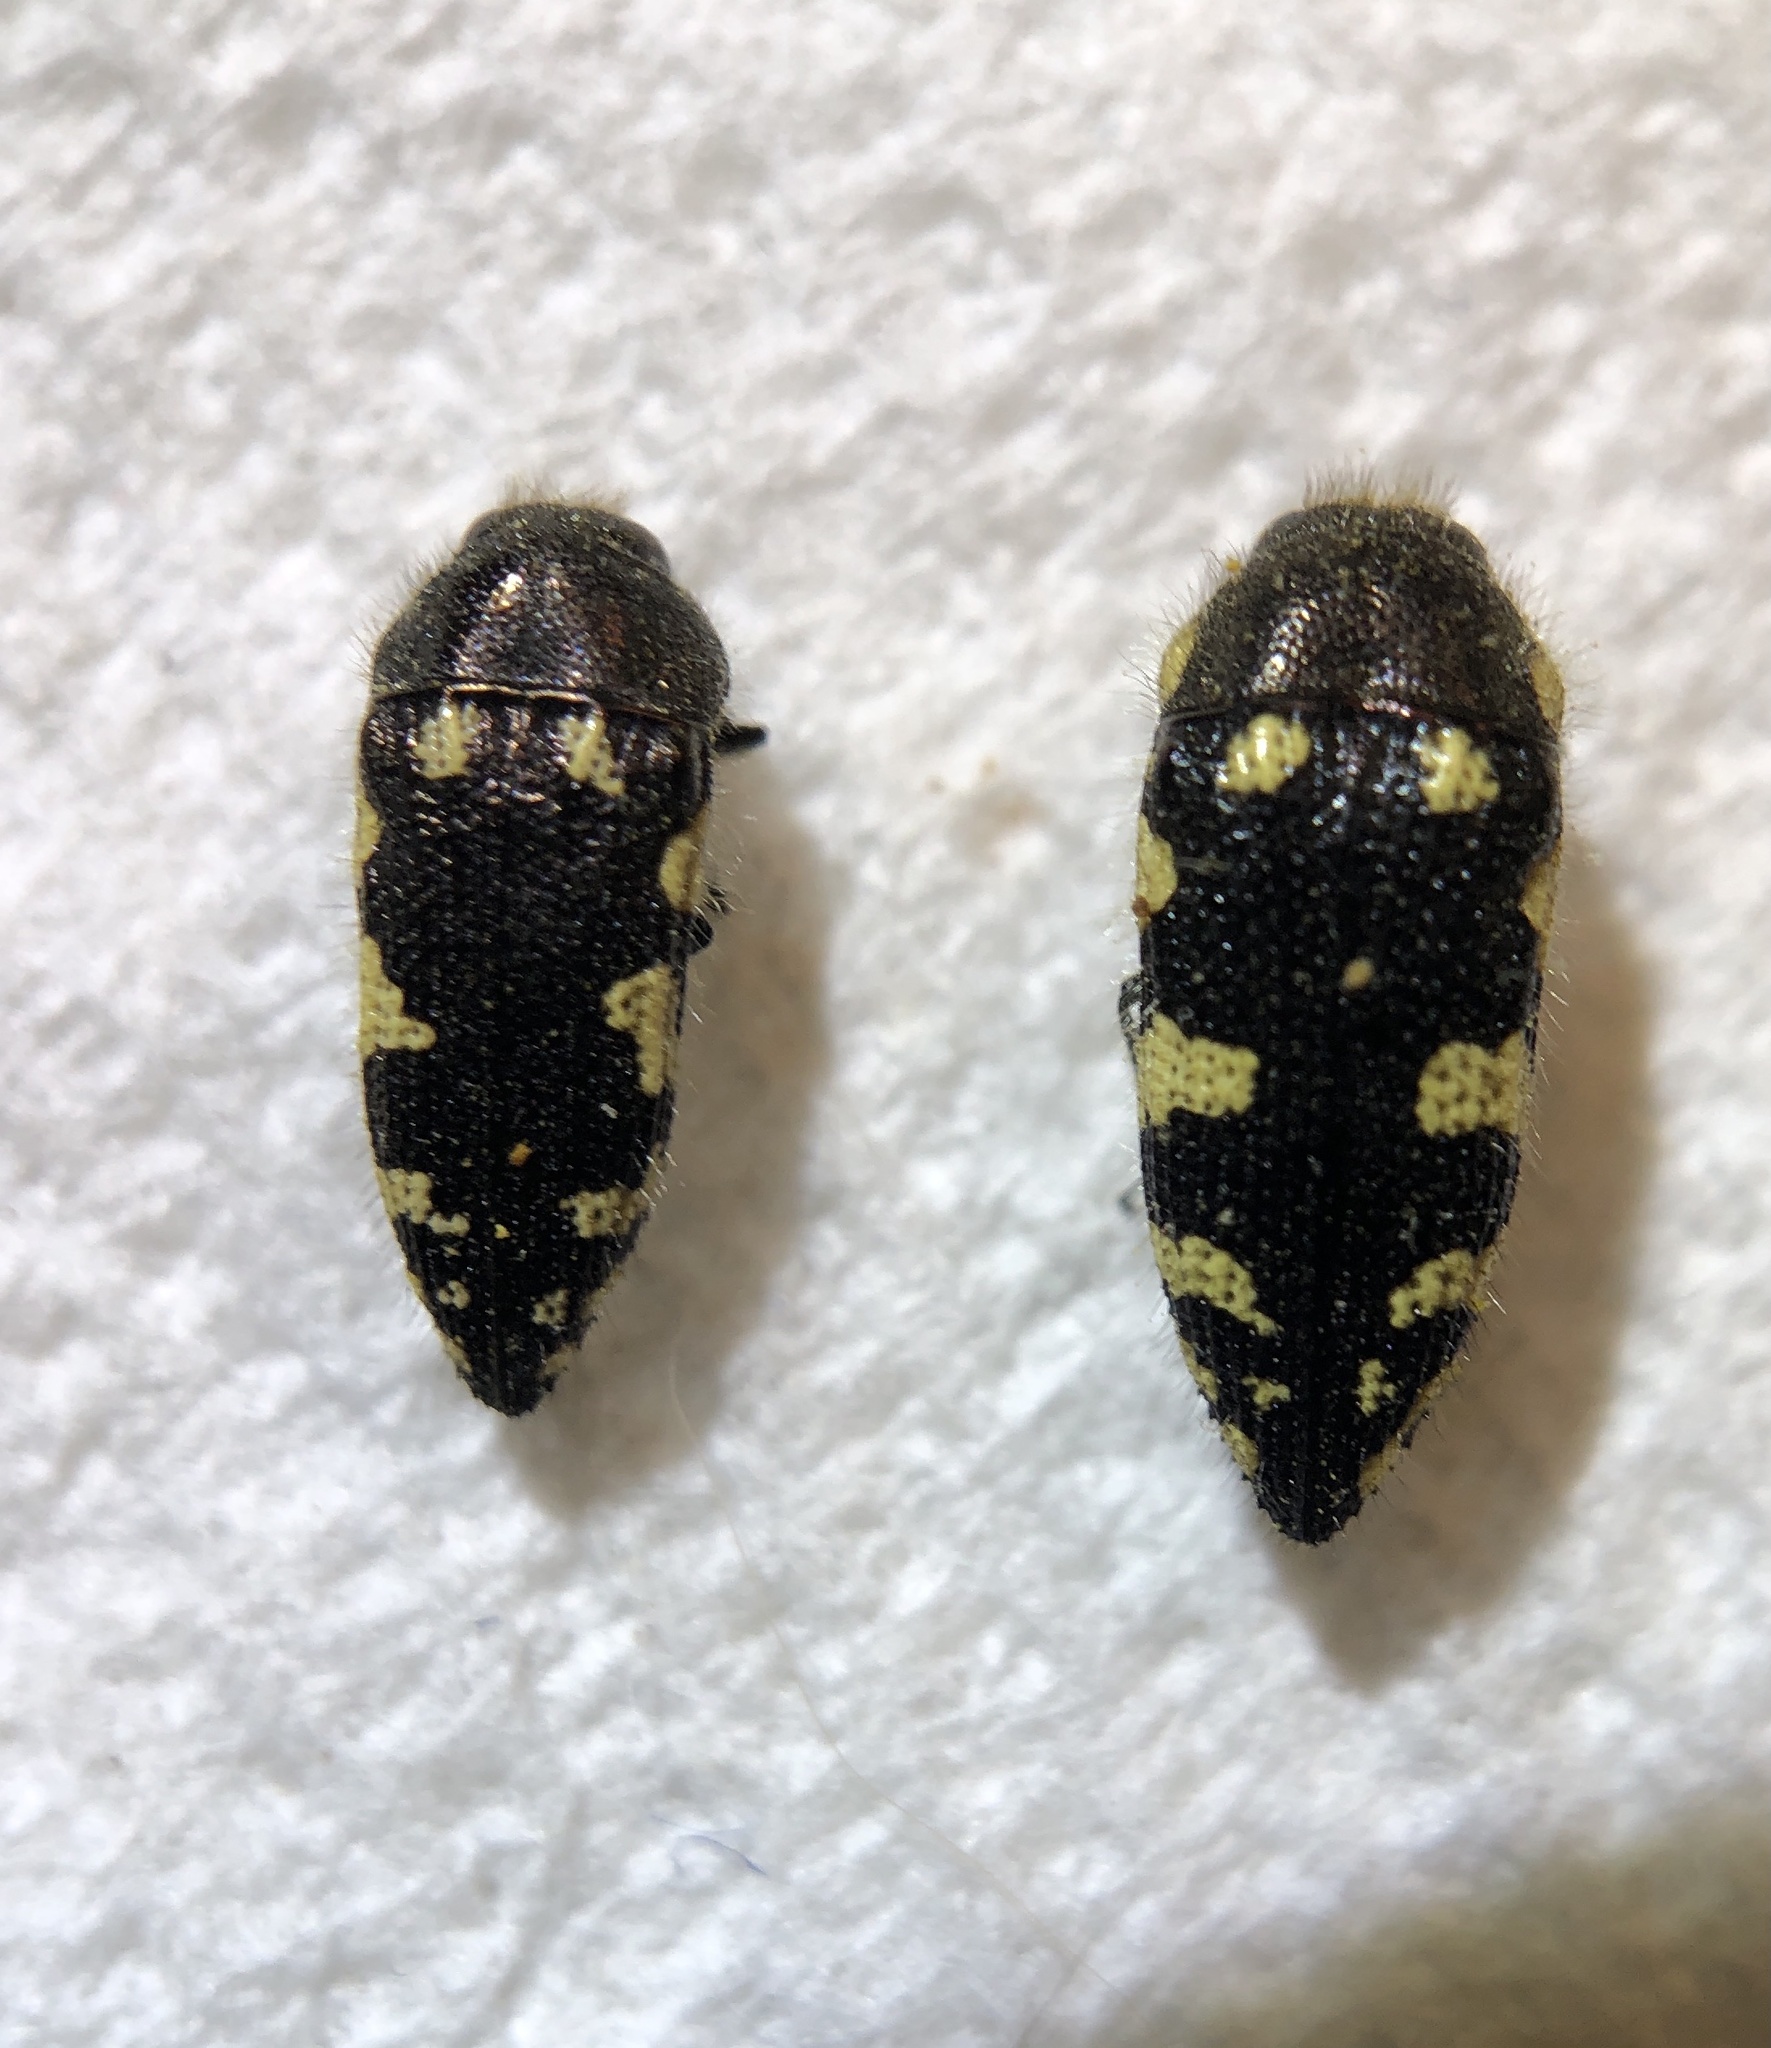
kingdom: Animalia
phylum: Arthropoda
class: Insecta
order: Coleoptera
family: Buprestidae
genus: Acmaeodera
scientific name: Acmaeodera vernalis
